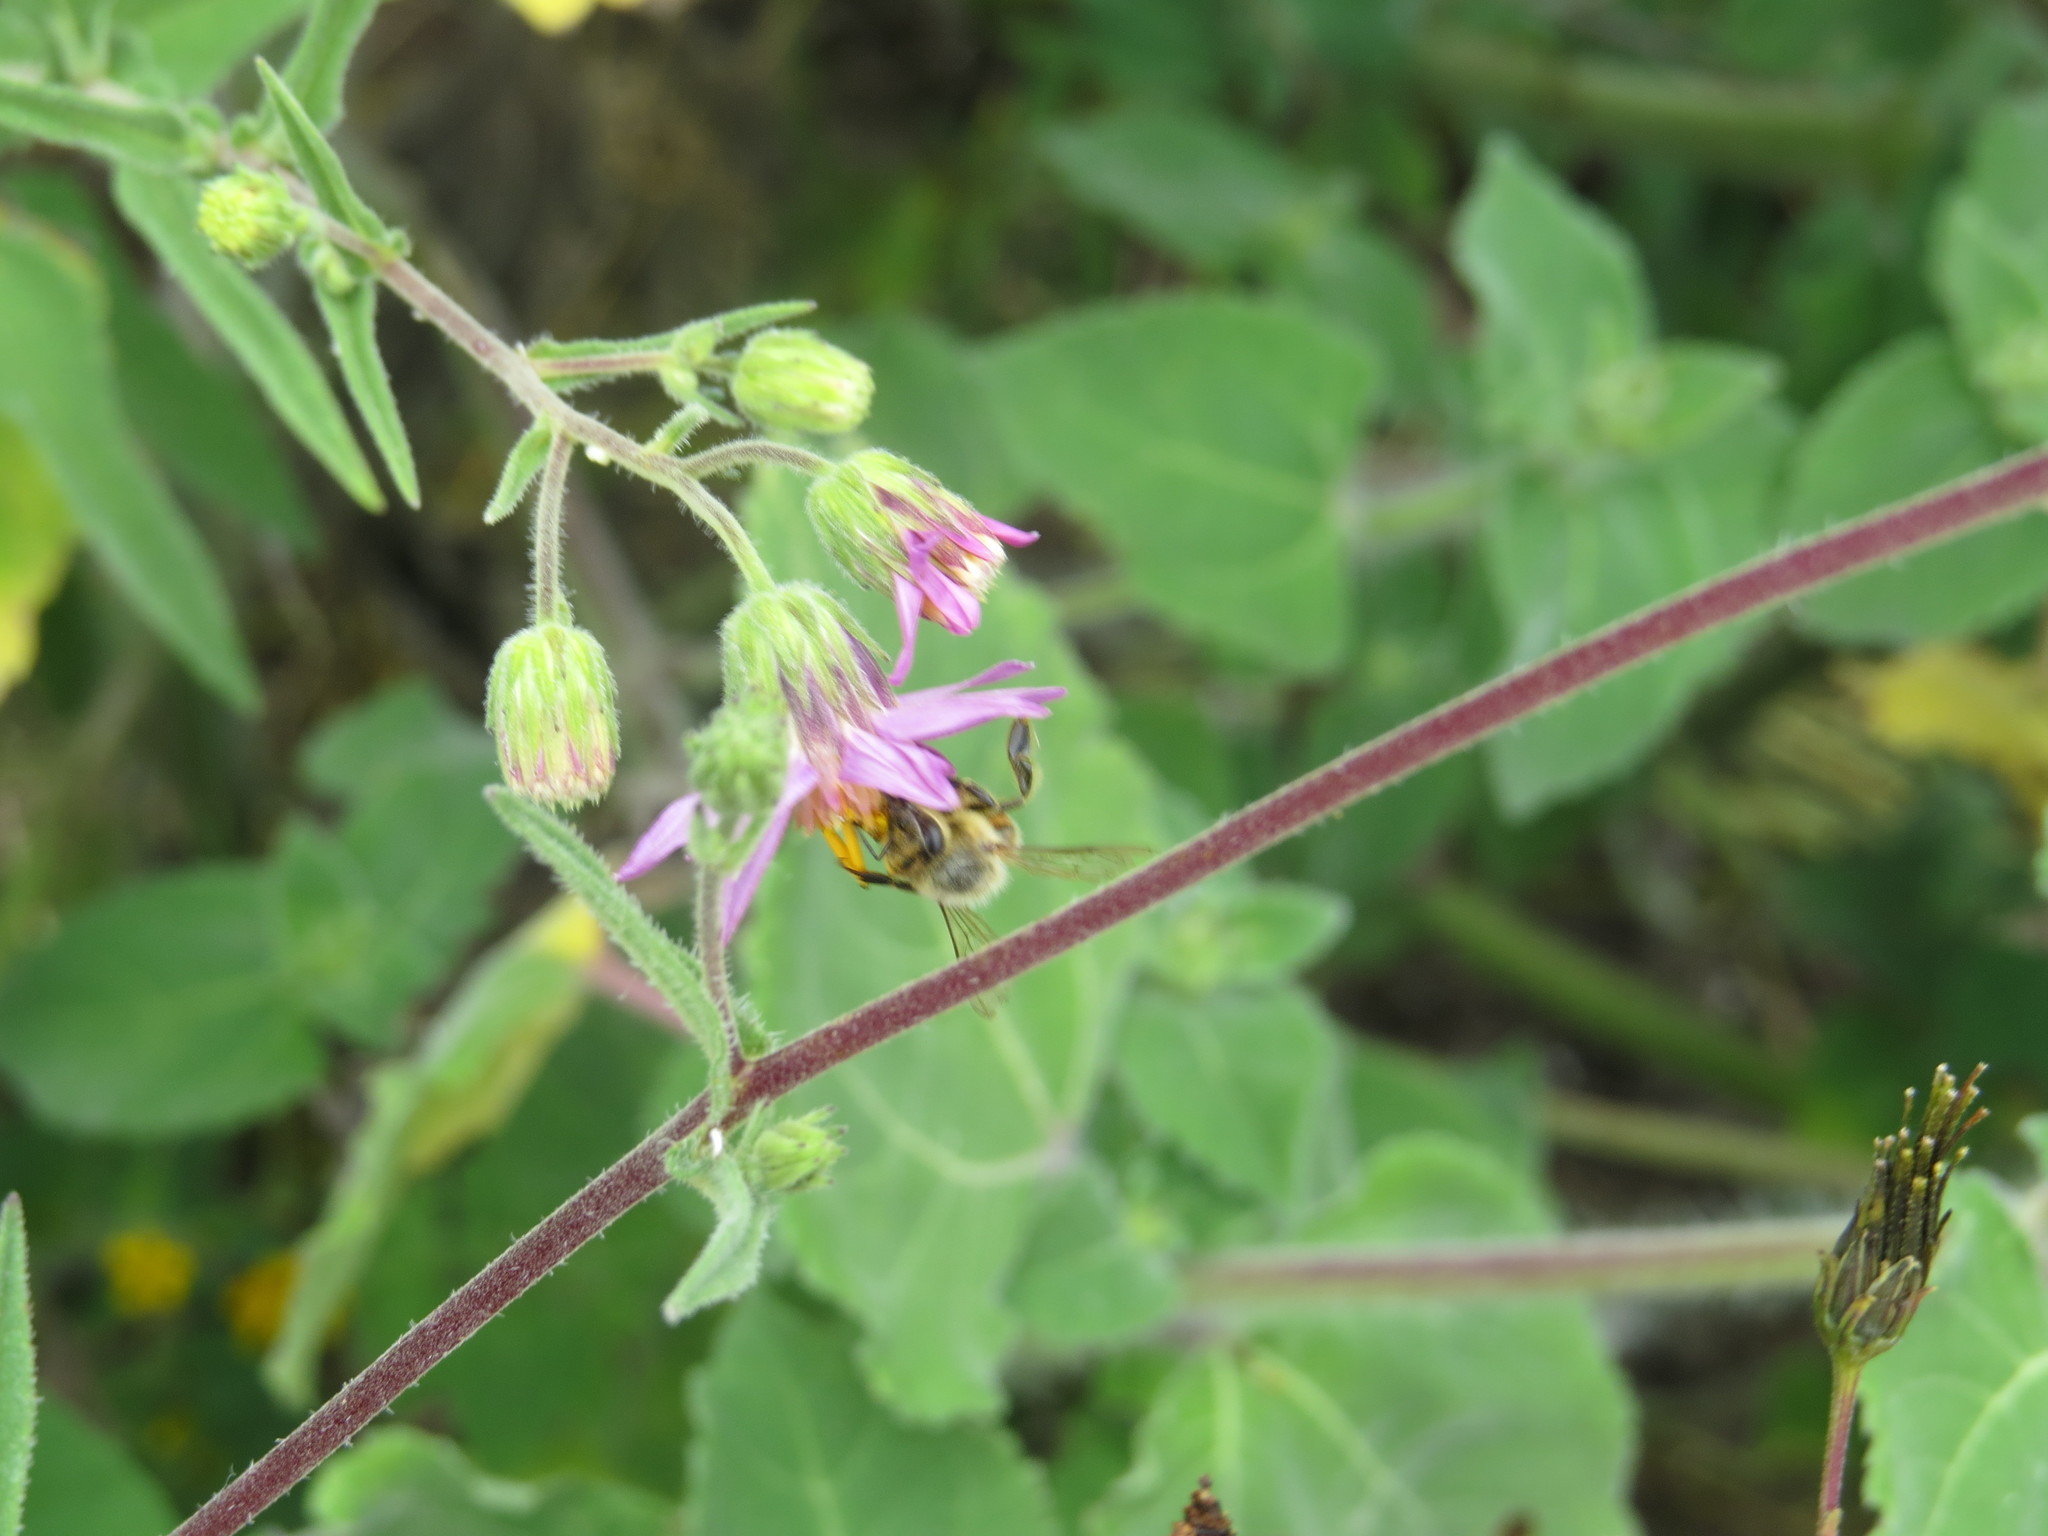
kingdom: Animalia
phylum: Arthropoda
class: Insecta
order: Hymenoptera
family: Apidae
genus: Apis
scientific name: Apis mellifera
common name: Honey bee
